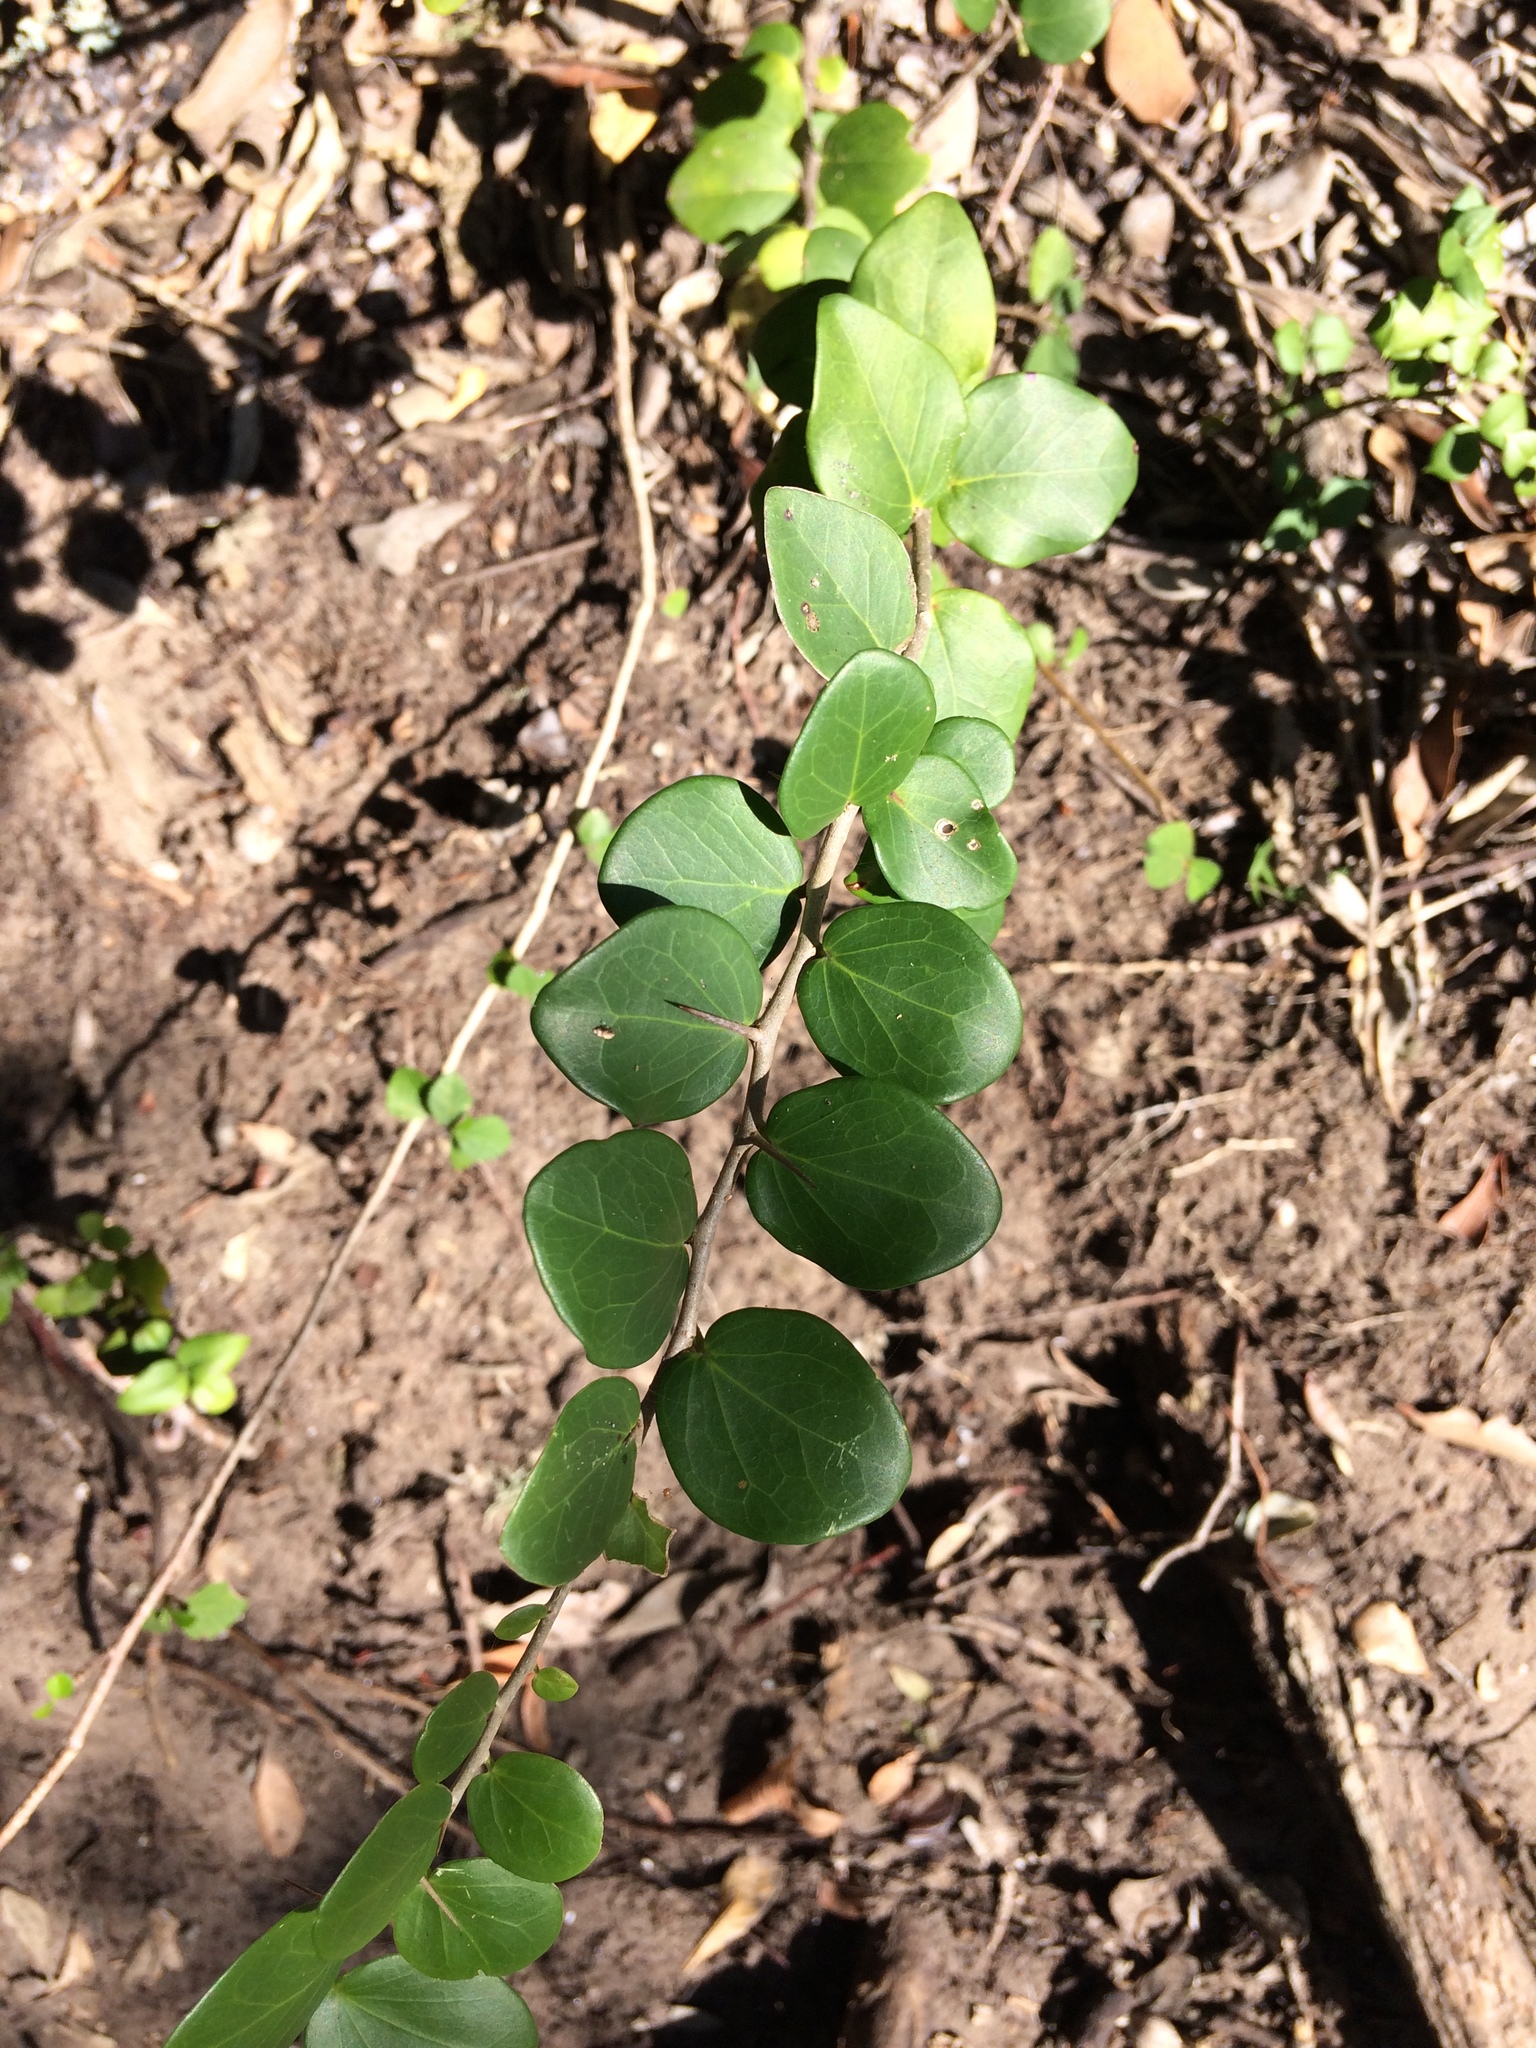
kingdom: Plantae
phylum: Tracheophyta
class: Magnoliopsida
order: Malpighiales
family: Salicaceae
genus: Dovyalis
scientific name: Dovyalis rotundifolia
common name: Dune sourberry
